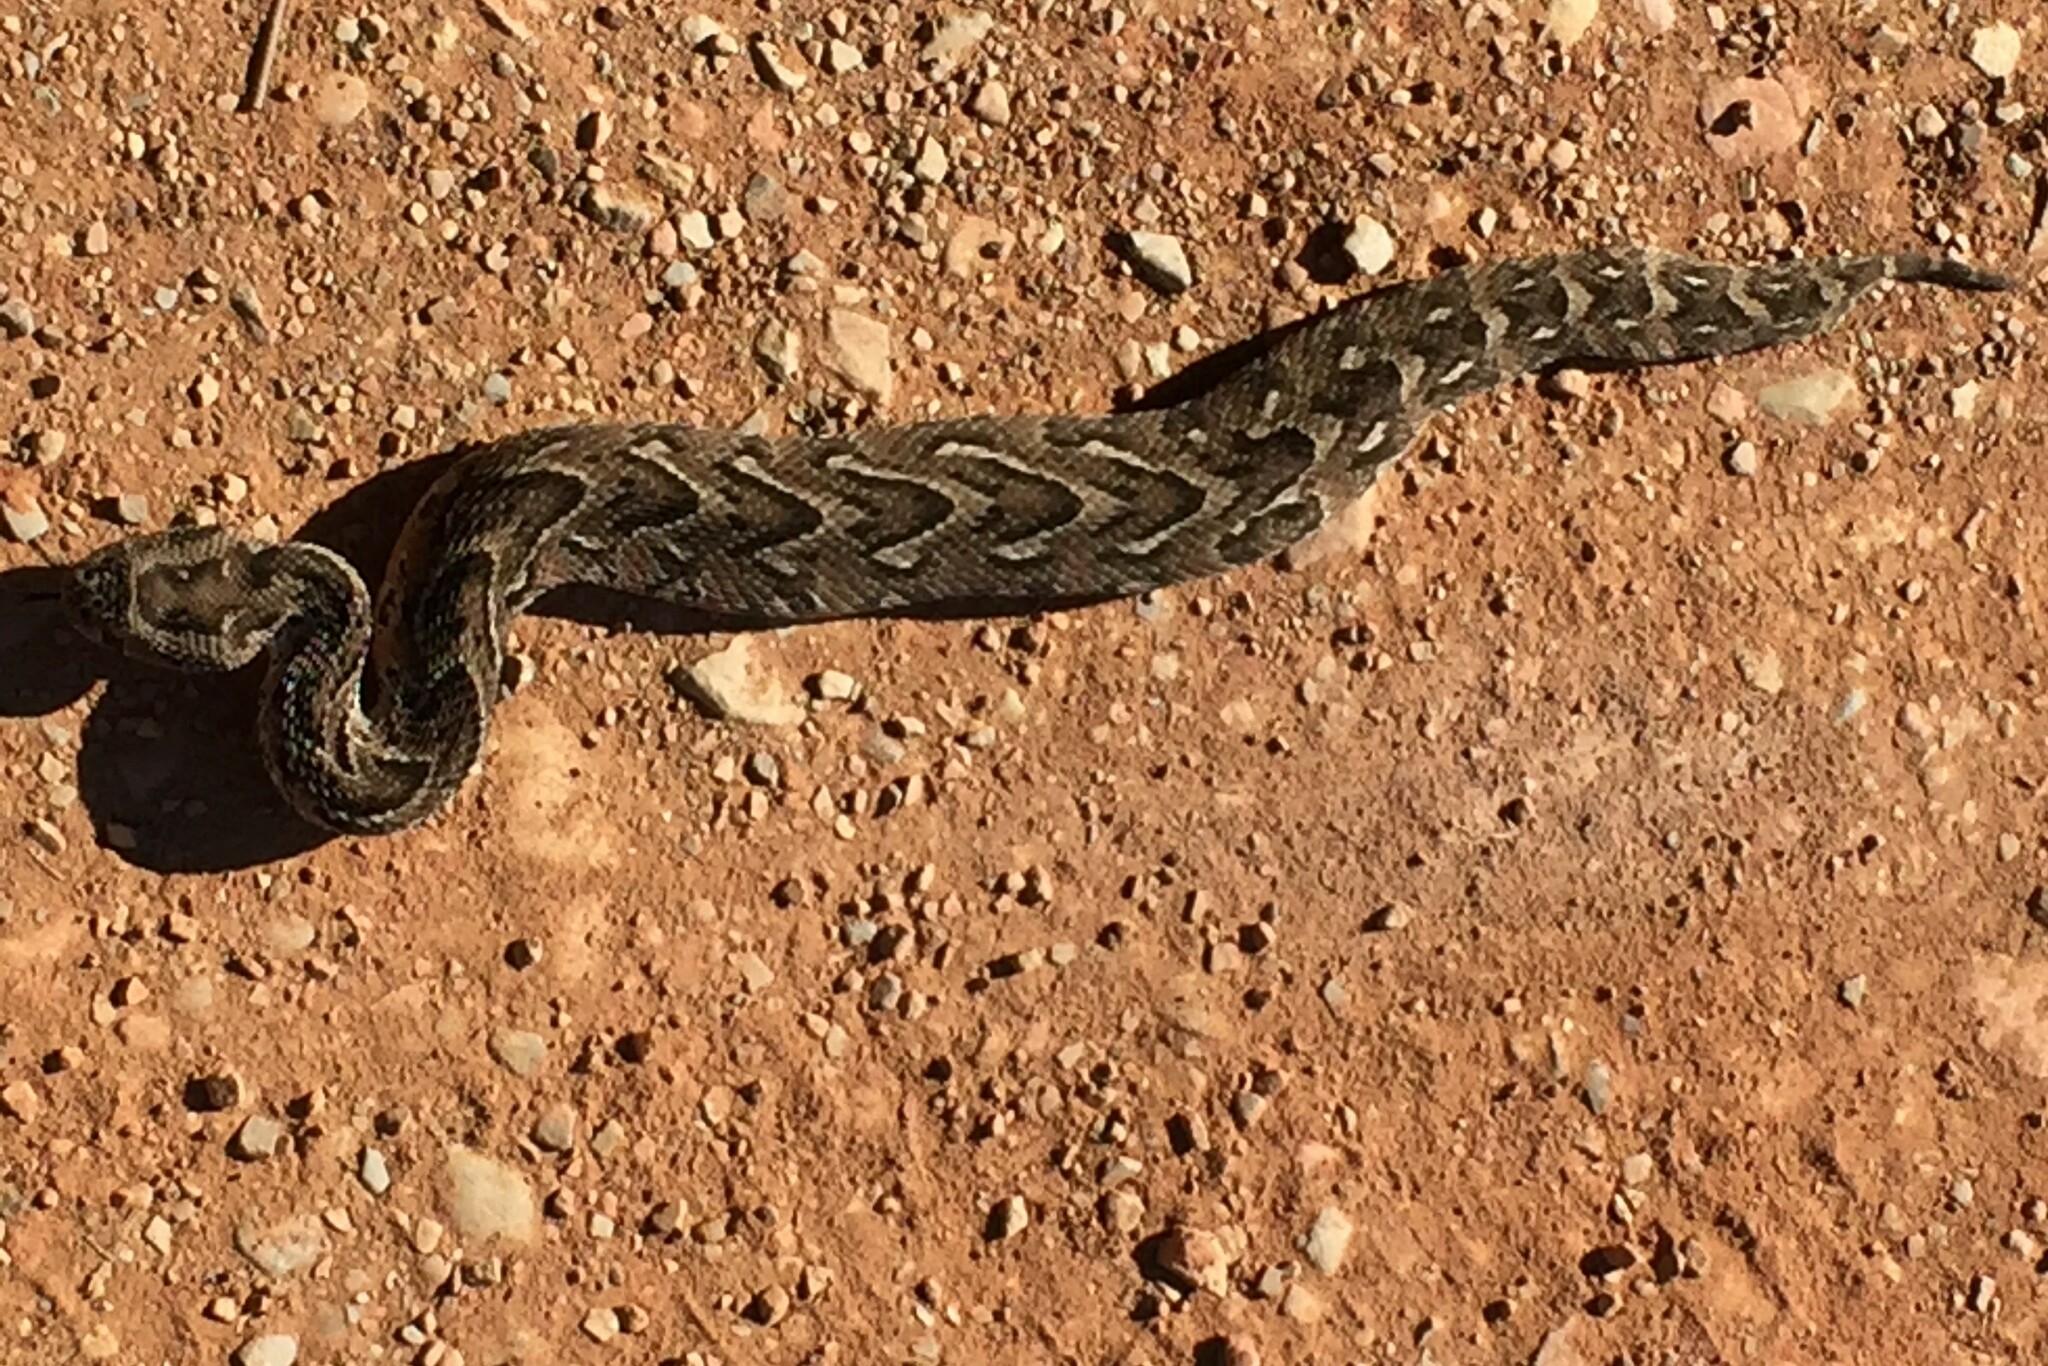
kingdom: Animalia
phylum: Chordata
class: Squamata
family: Viperidae
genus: Bitis
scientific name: Bitis arietans
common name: Puff adder
